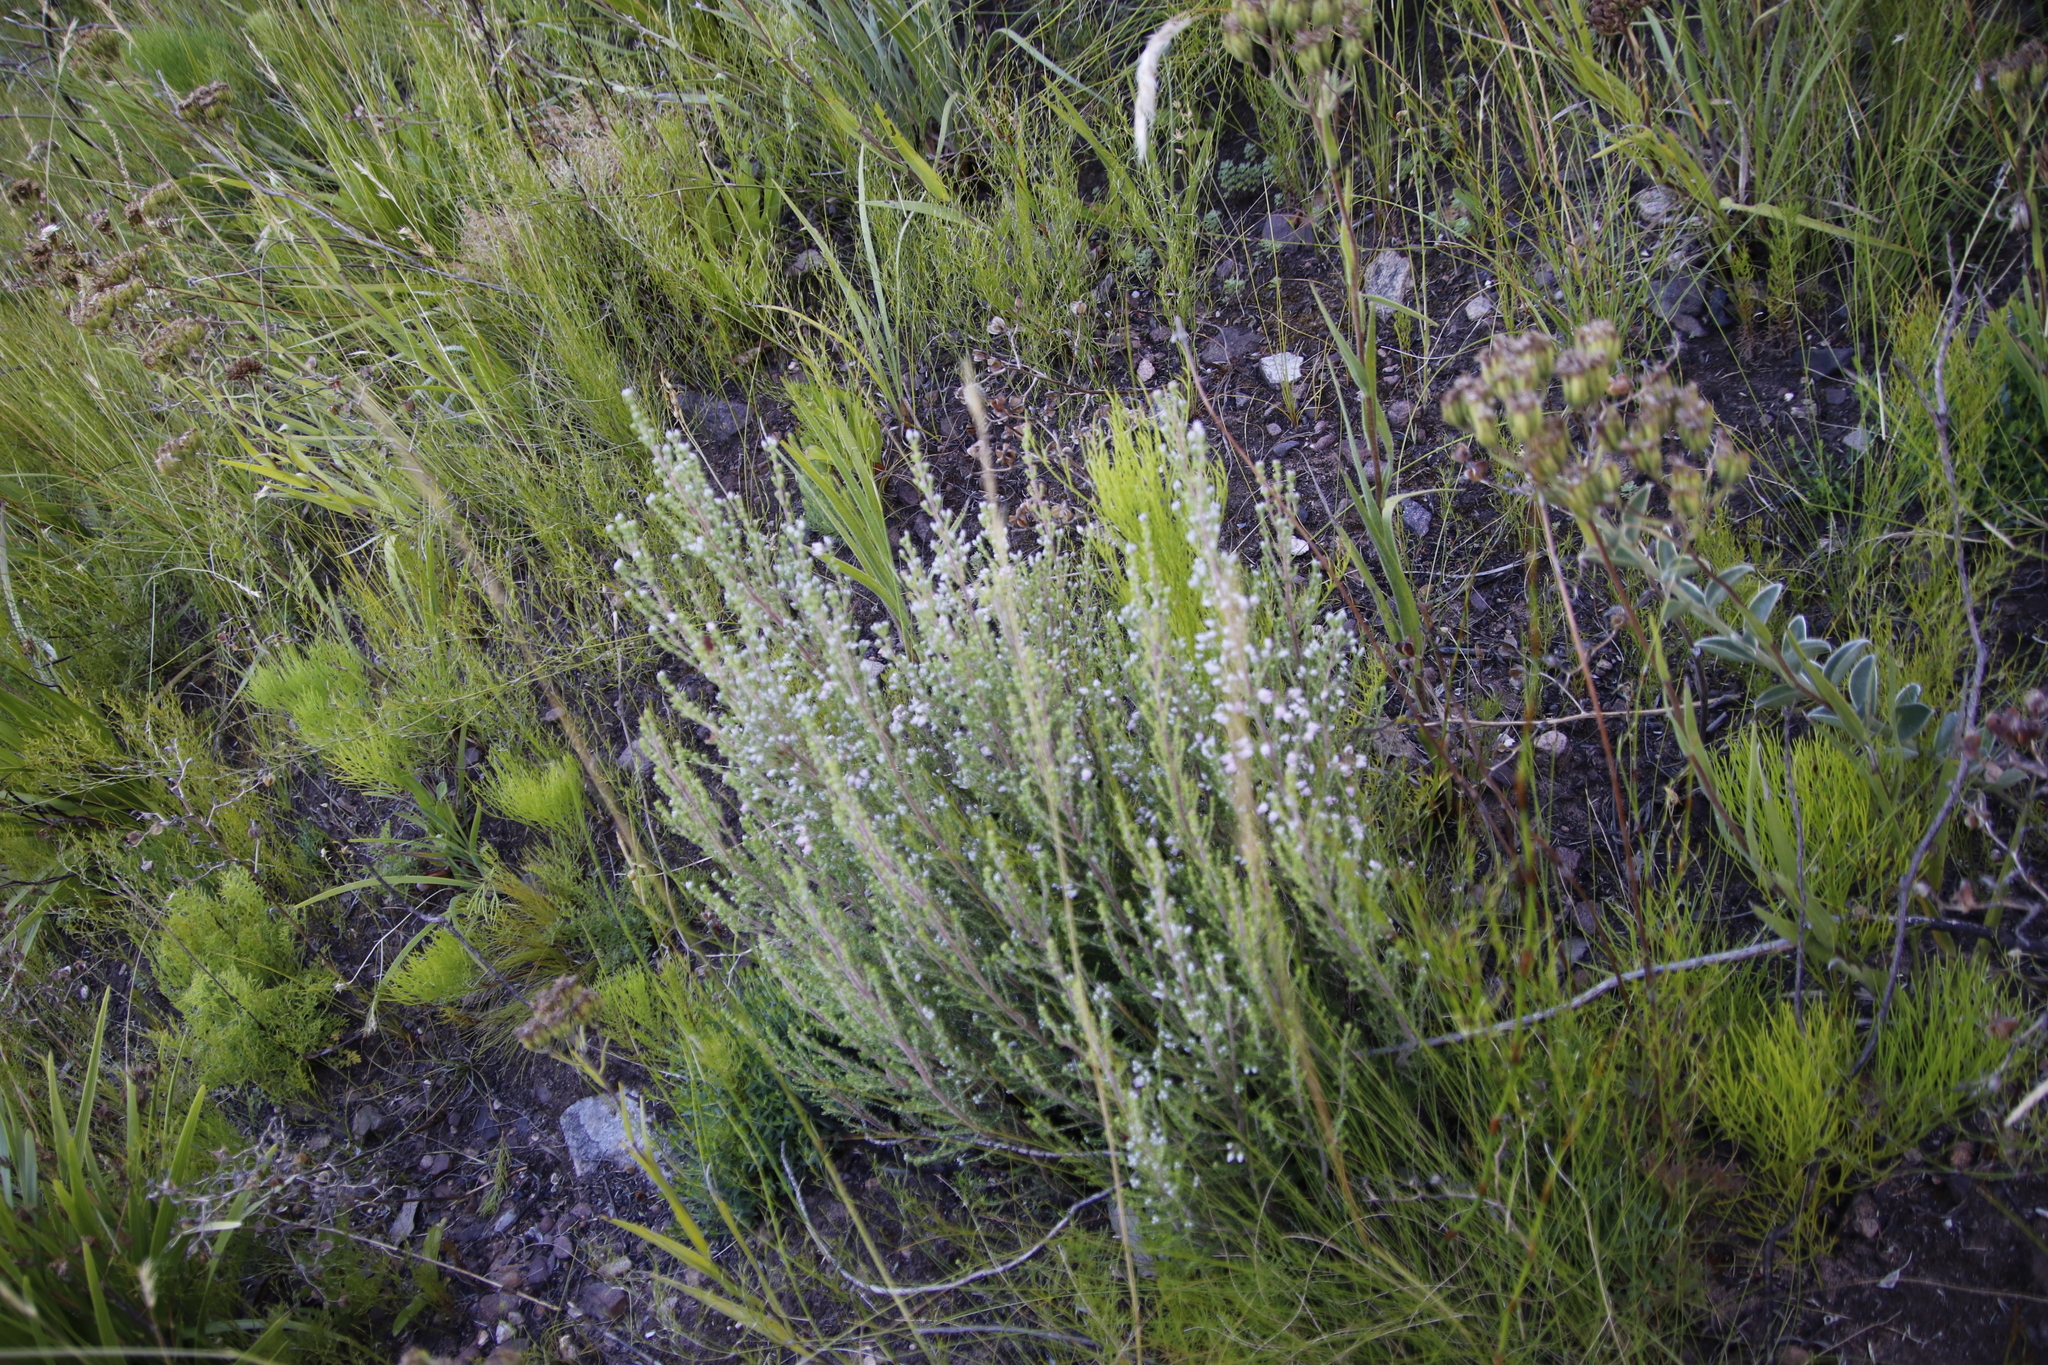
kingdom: Plantae
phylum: Tracheophyta
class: Magnoliopsida
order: Ericales
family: Ericaceae
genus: Erica
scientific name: Erica pubescens
